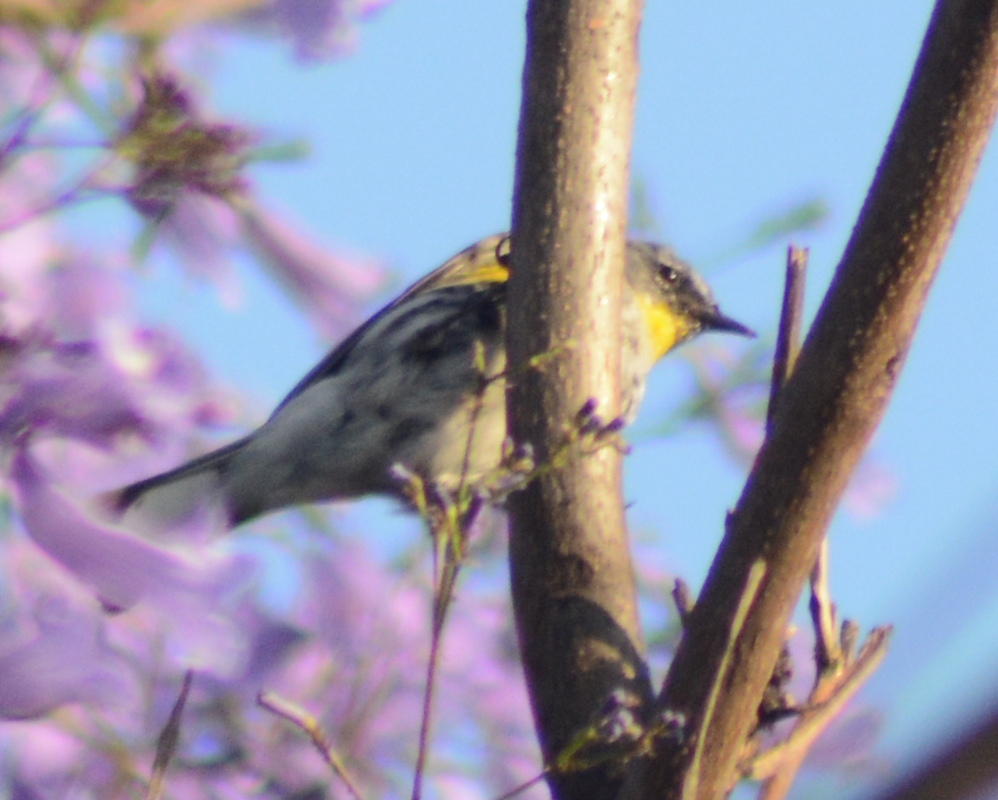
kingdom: Animalia
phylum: Chordata
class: Aves
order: Passeriformes
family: Parulidae
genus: Setophaga
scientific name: Setophaga coronata
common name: Myrtle warbler
